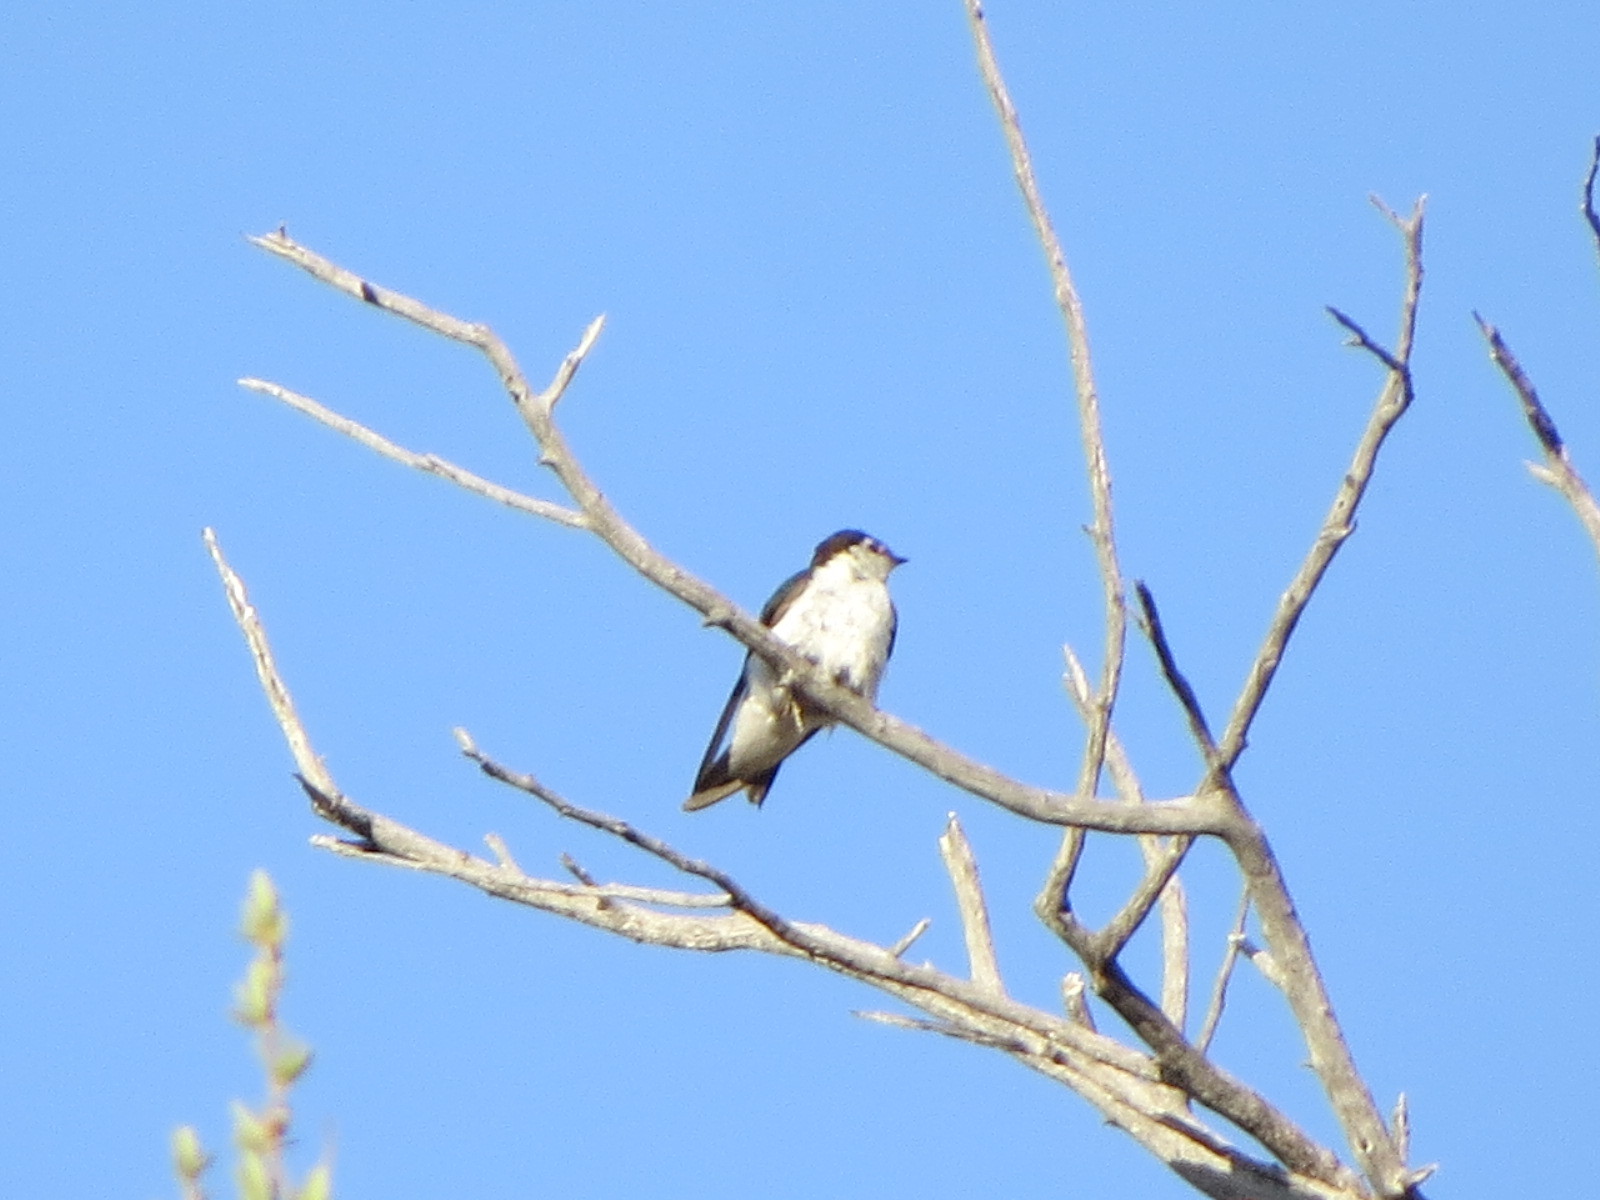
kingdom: Animalia
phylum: Chordata
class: Aves
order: Passeriformes
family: Hirundinidae
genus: Tachycineta
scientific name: Tachycineta thalassina
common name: Violet-green swallow
